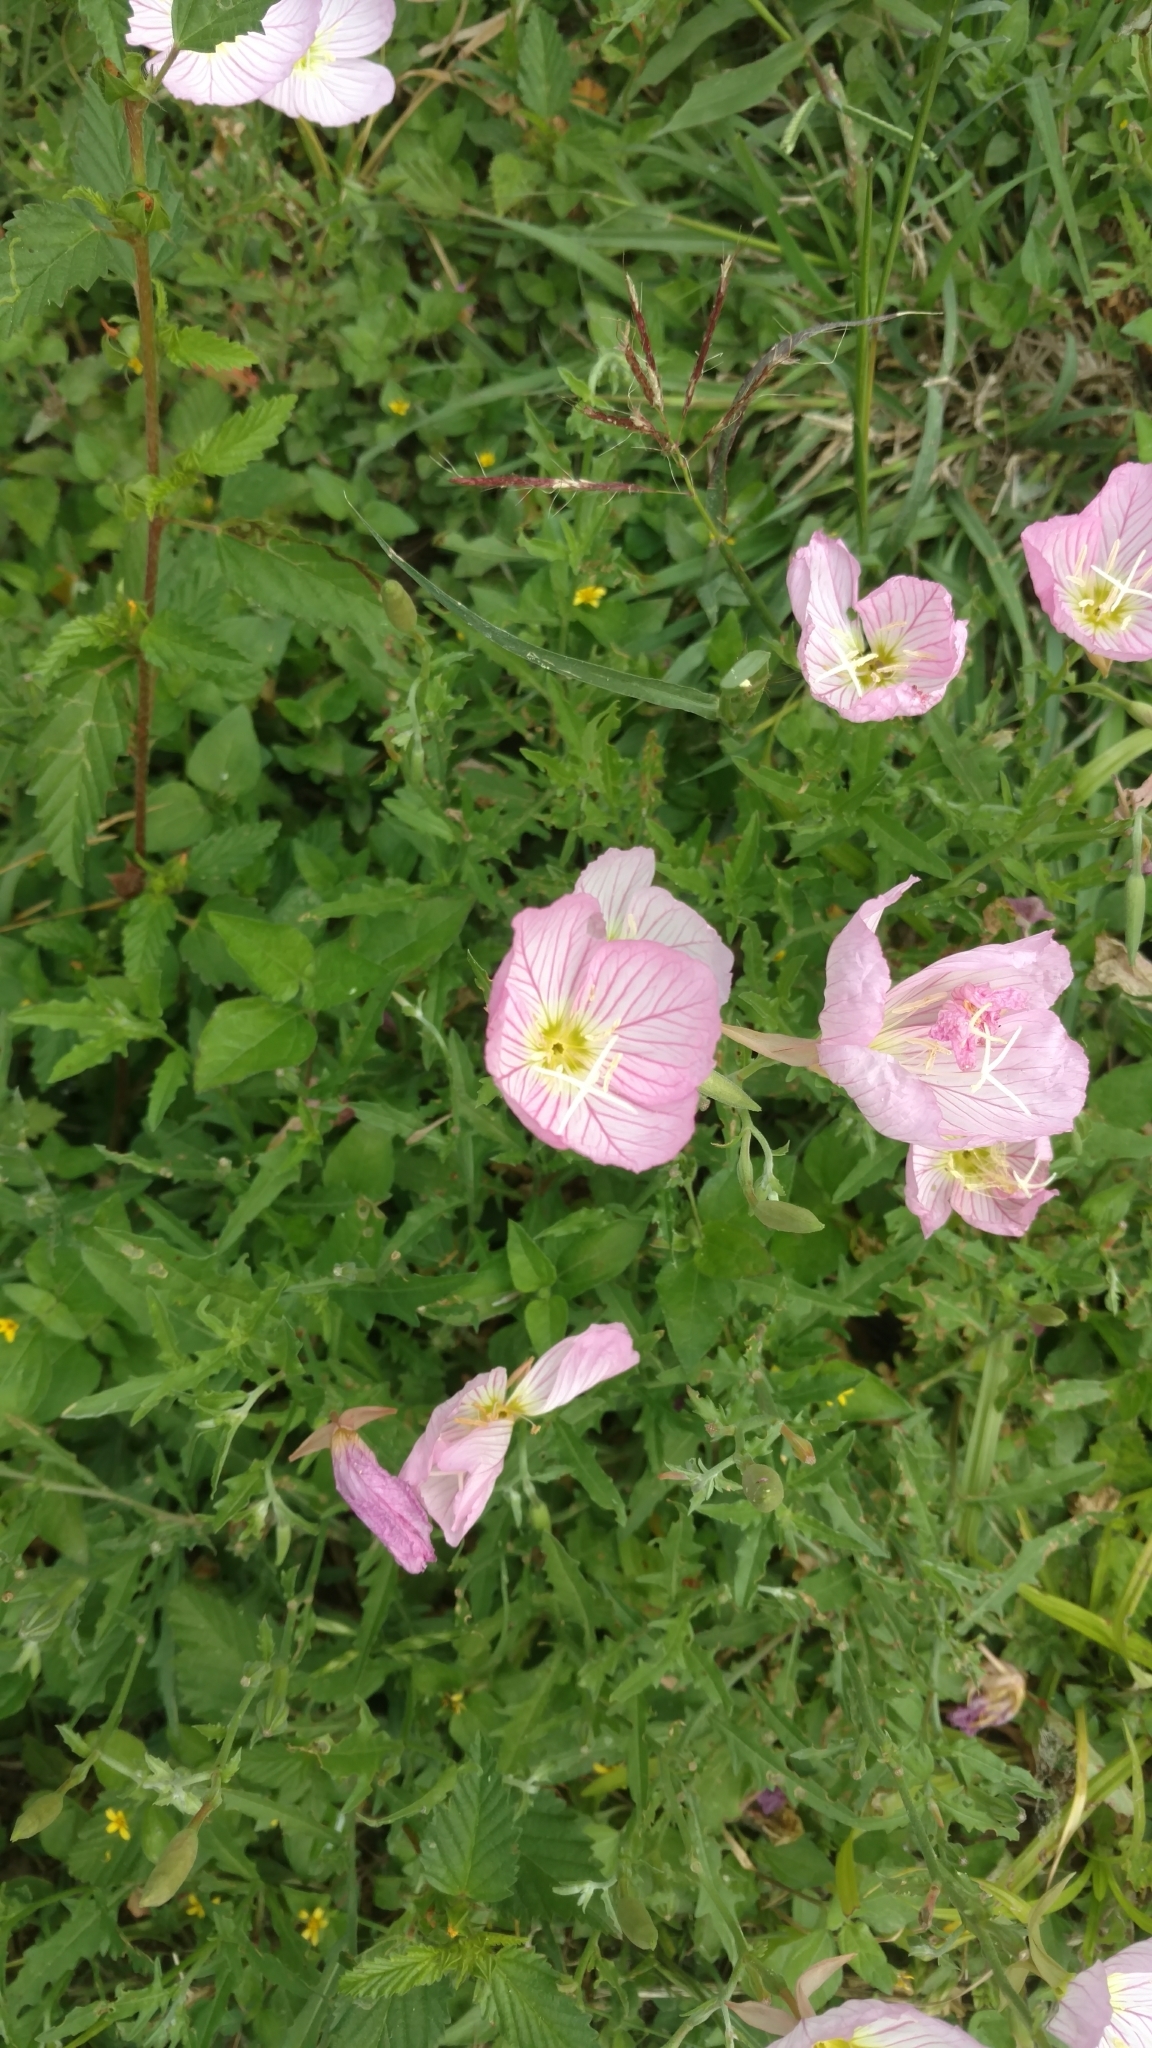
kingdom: Plantae
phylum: Tracheophyta
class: Magnoliopsida
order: Myrtales
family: Onagraceae
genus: Oenothera
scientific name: Oenothera speciosa
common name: White evening-primrose
